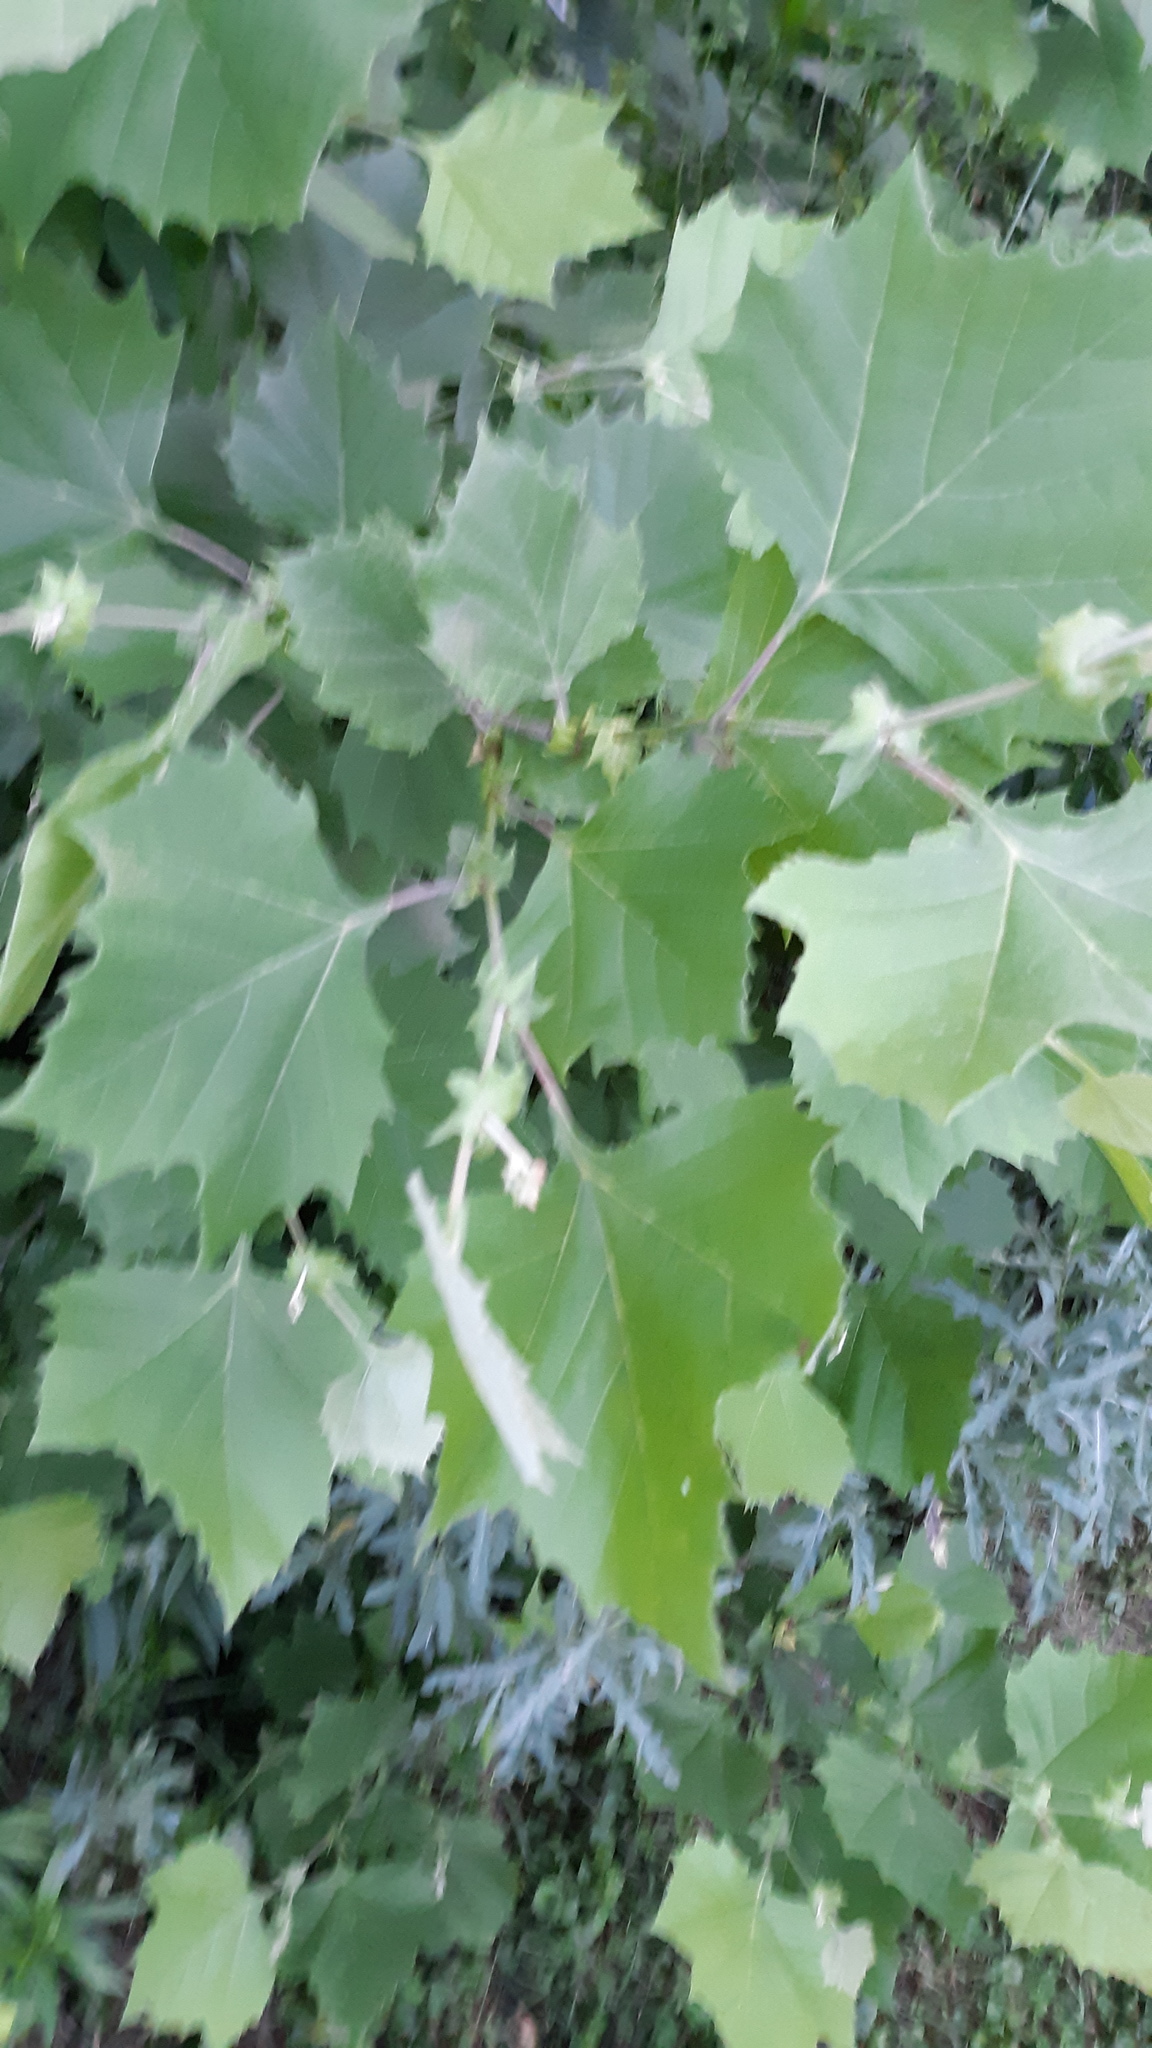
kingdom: Plantae
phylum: Tracheophyta
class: Magnoliopsida
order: Proteales
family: Platanaceae
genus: Platanus
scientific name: Platanus occidentalis
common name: American sycamore
